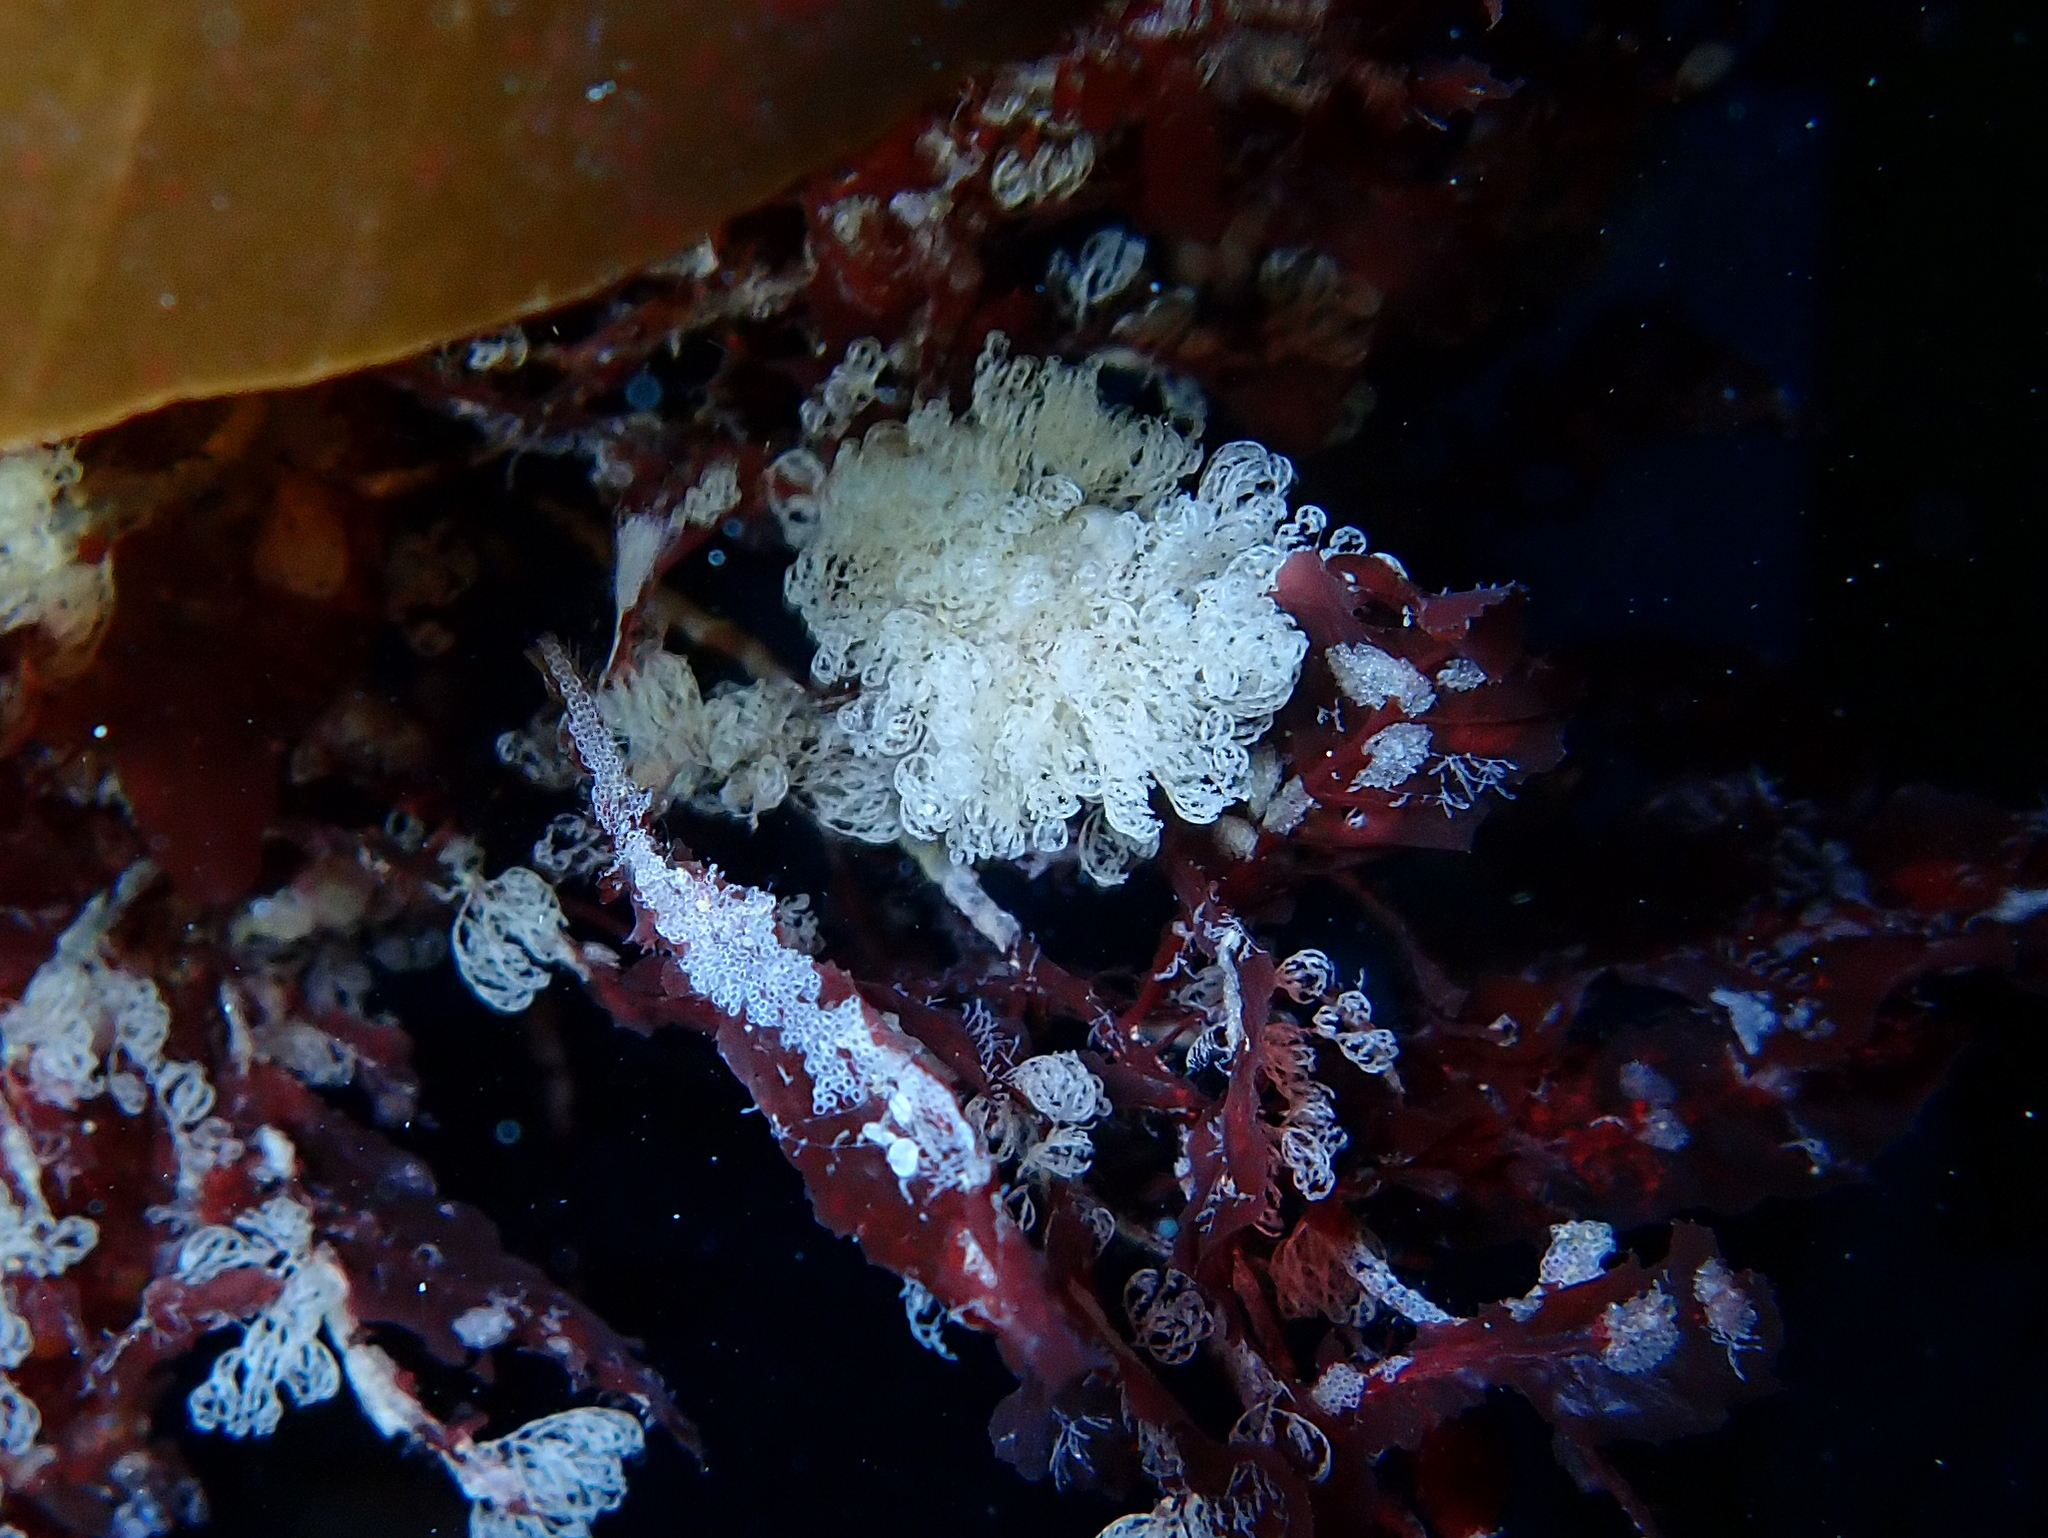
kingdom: Animalia
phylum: Bryozoa
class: Stenolaemata
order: Cyclostomatida
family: Crisiidae
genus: Crisia
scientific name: Crisia eburnea
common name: Ivory bryozoan
